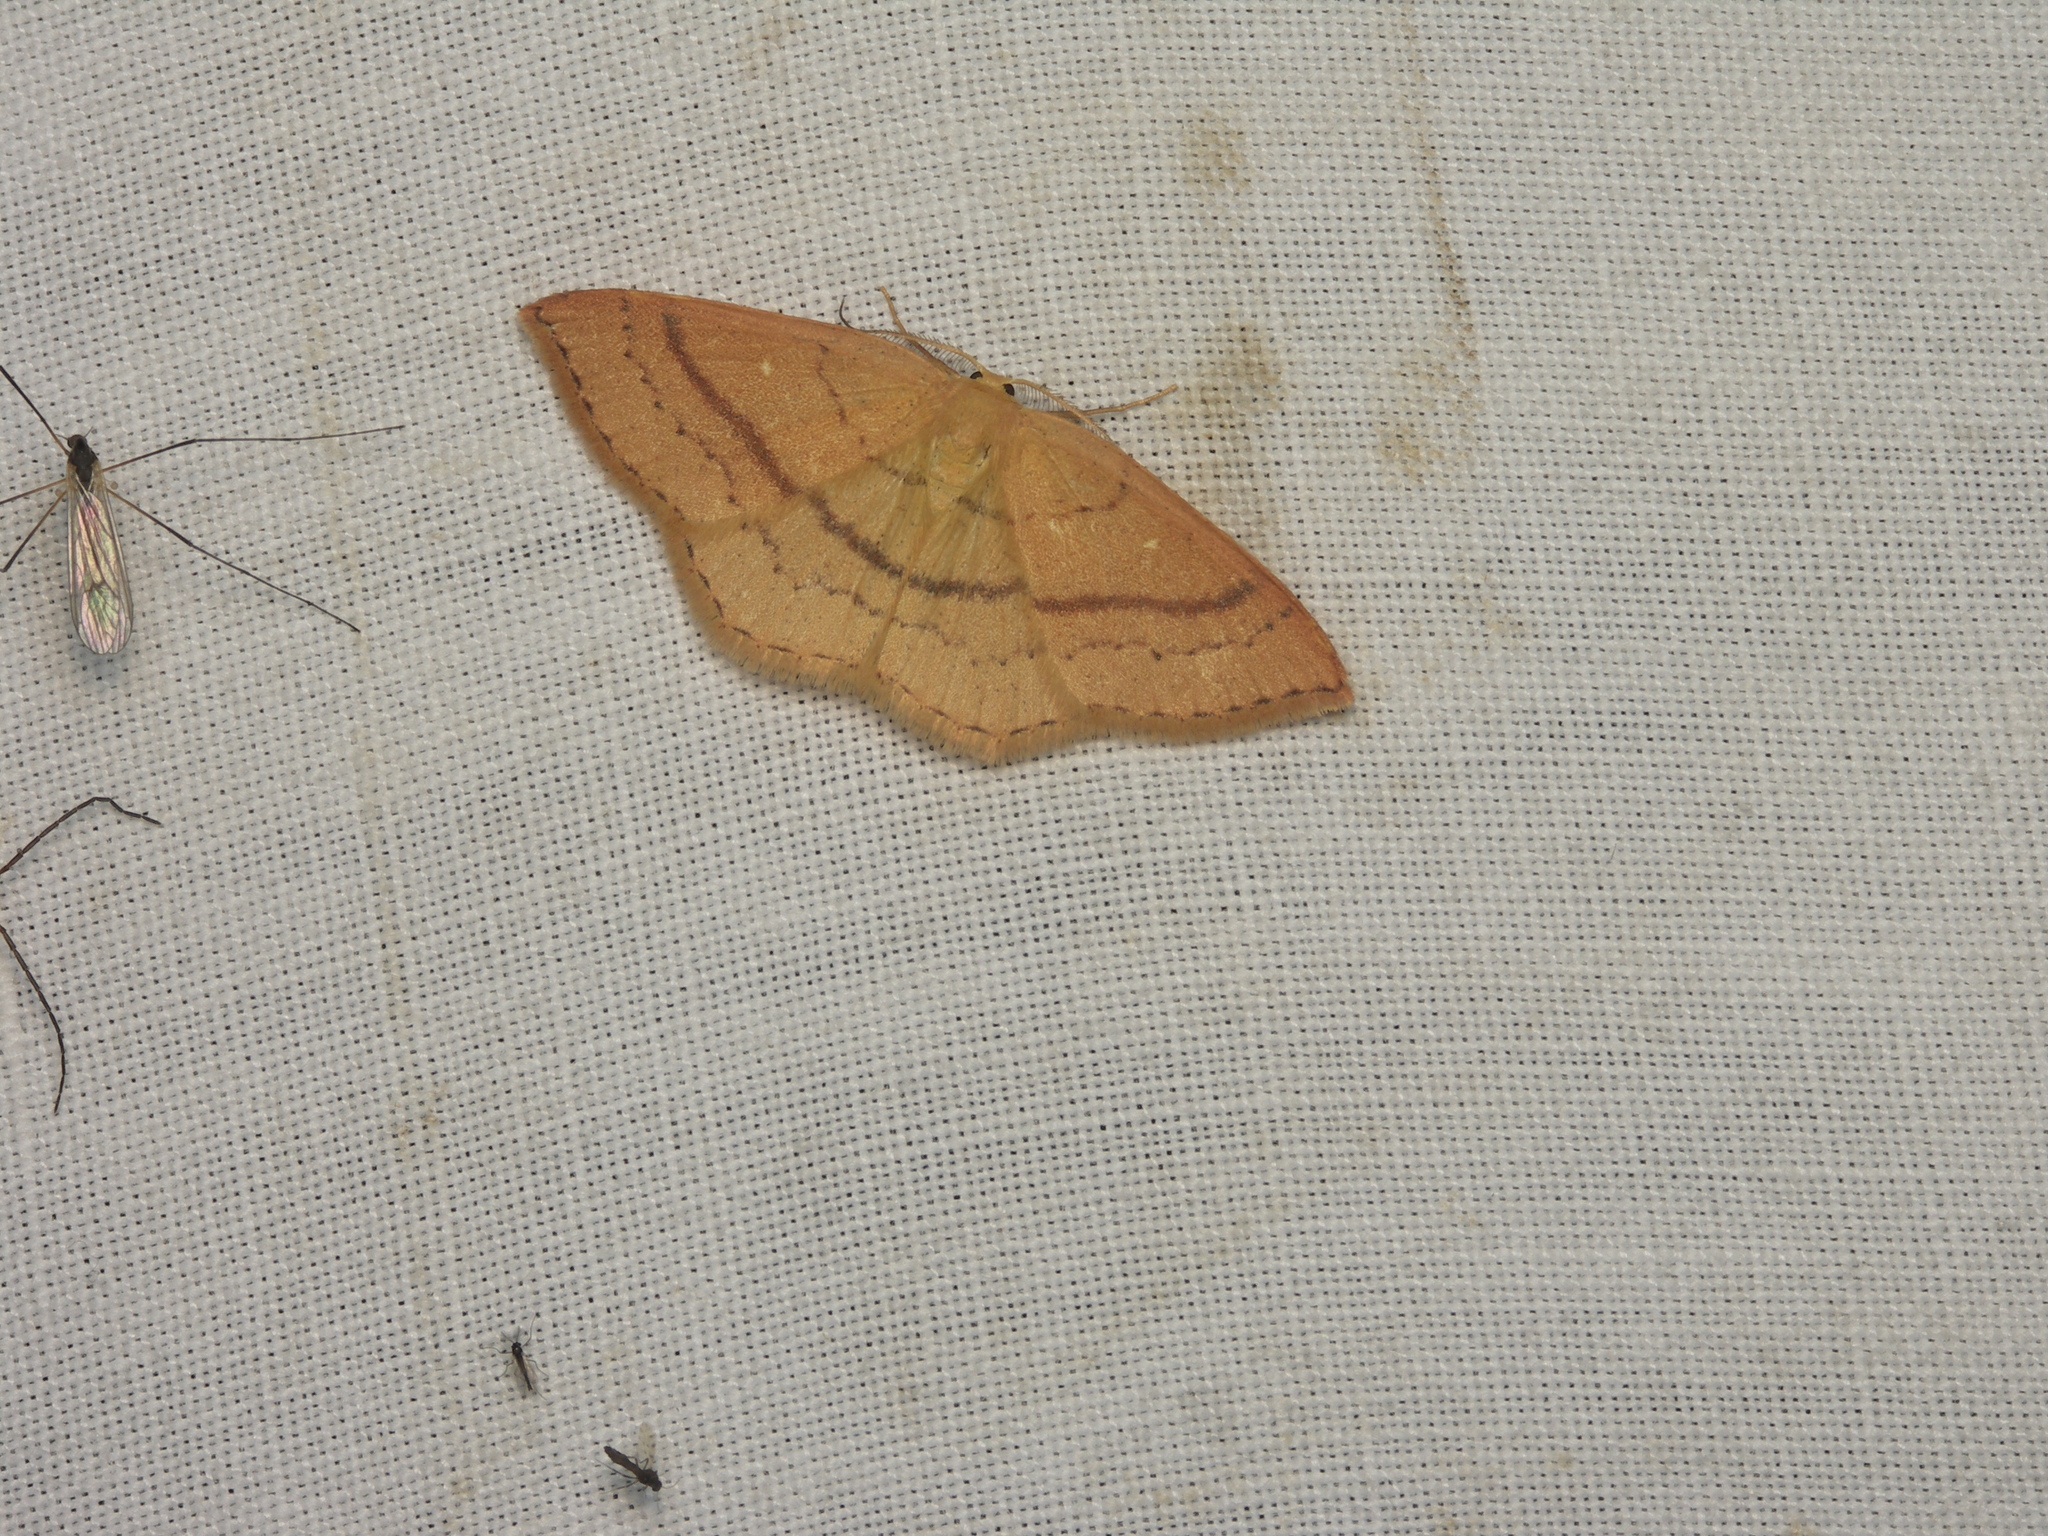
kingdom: Animalia
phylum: Arthropoda
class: Insecta
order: Lepidoptera
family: Geometridae
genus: Cyclophora
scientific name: Cyclophora linearia
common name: Clay triple-lines
